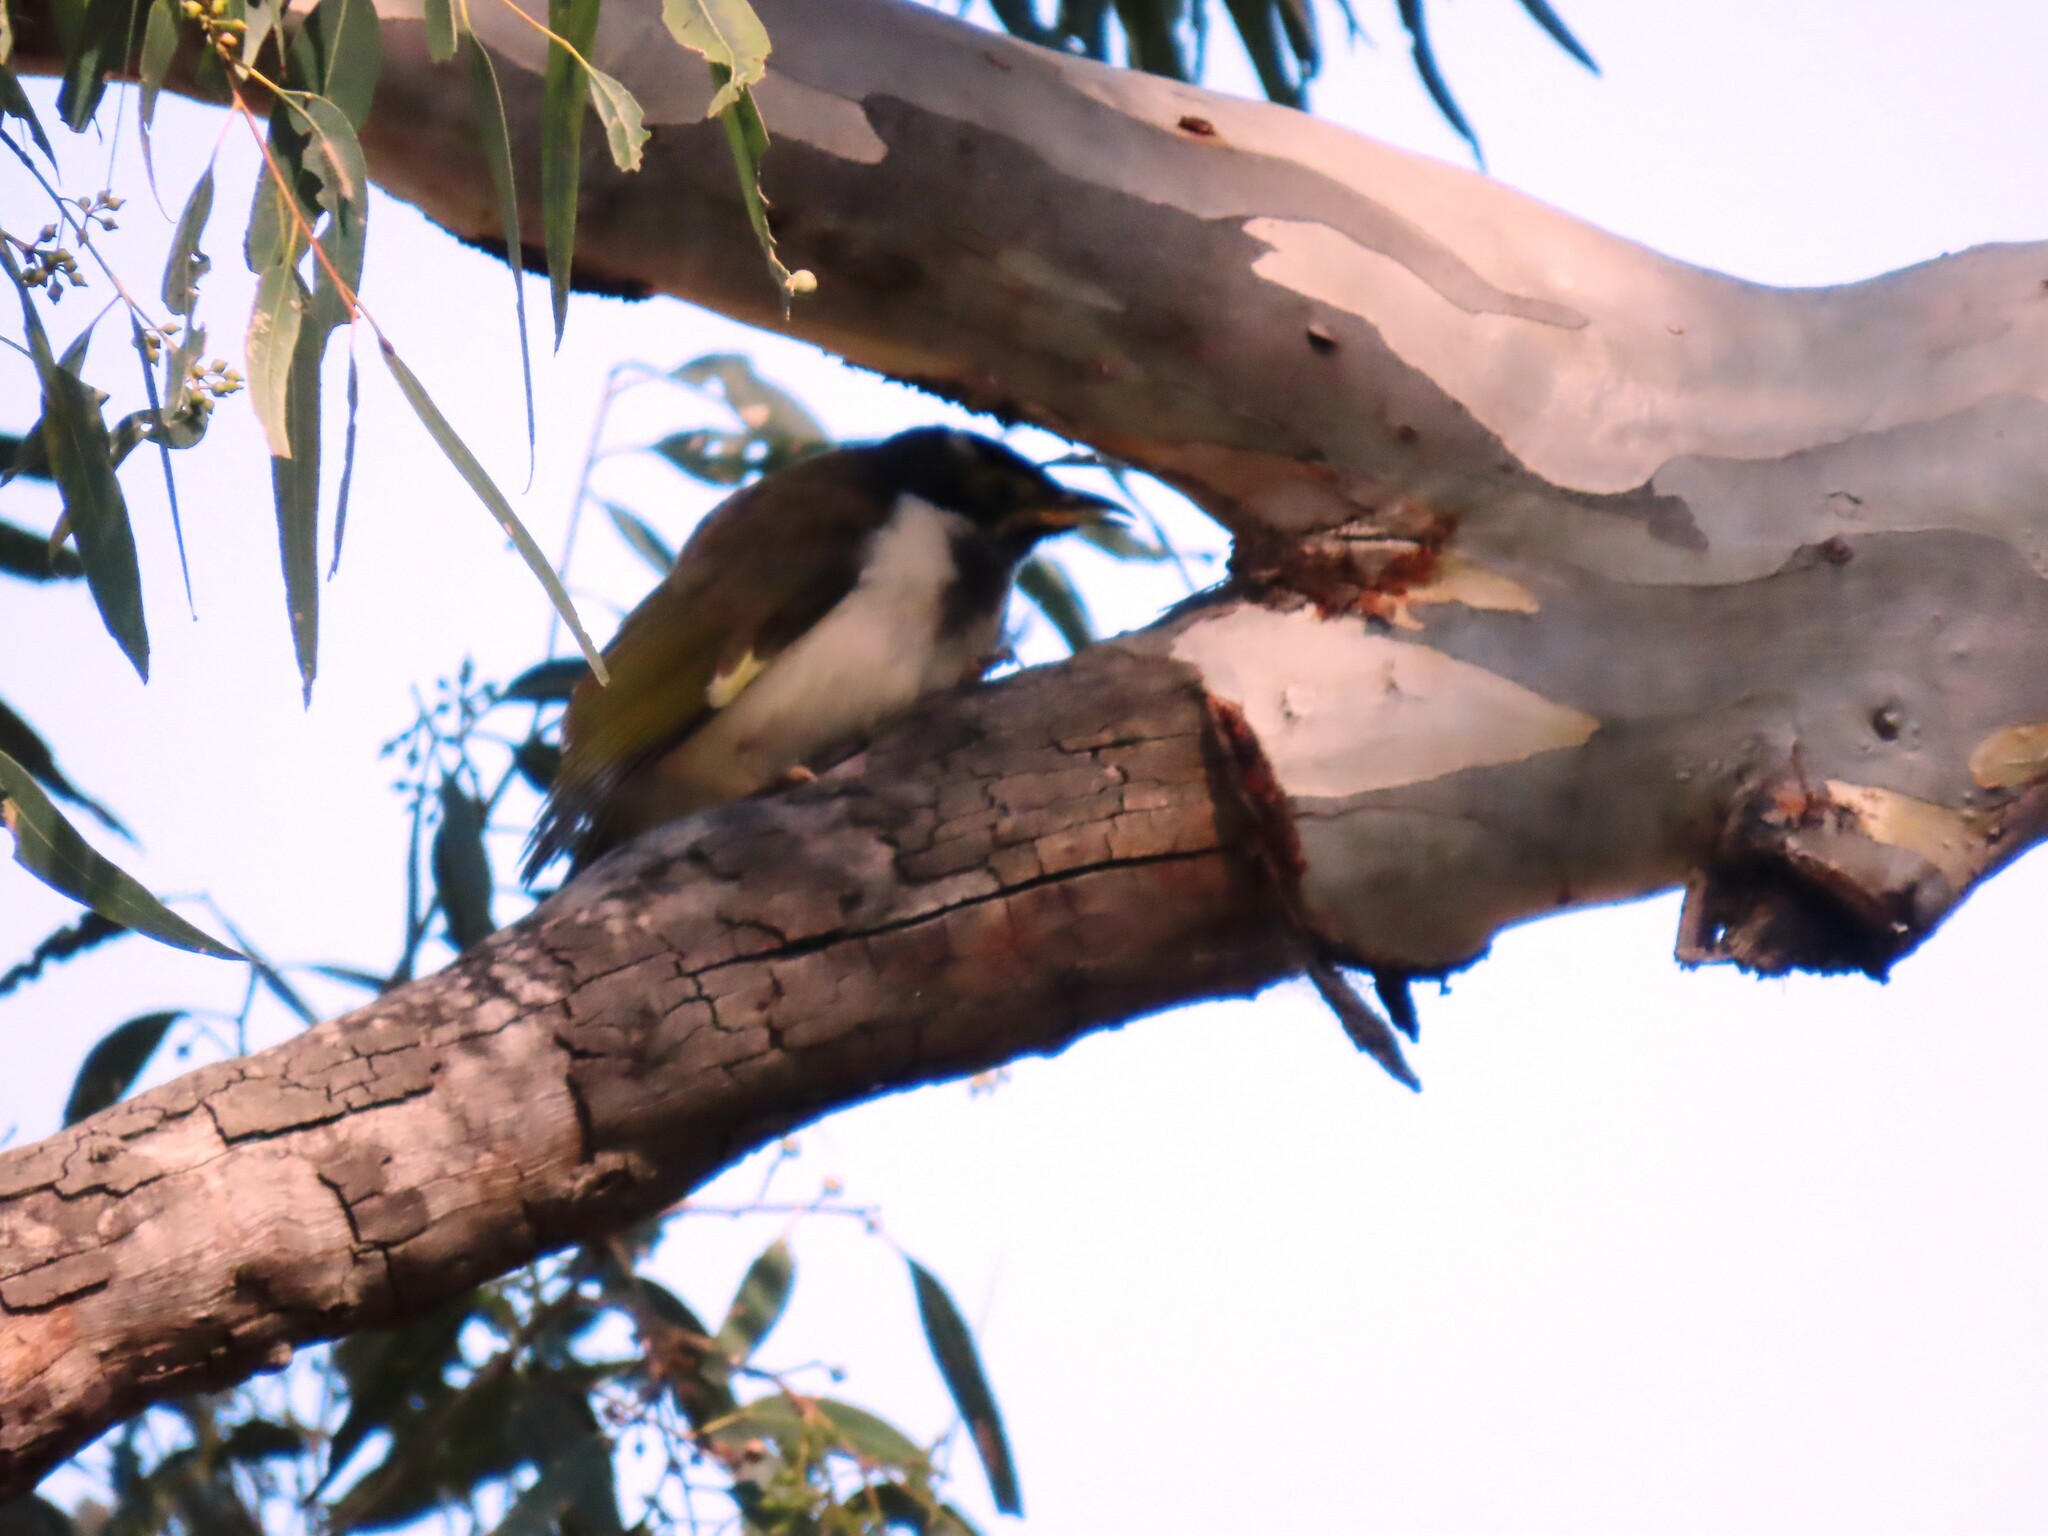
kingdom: Animalia
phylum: Chordata
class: Aves
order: Passeriformes
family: Meliphagidae
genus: Entomyzon
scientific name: Entomyzon cyanotis
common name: Blue-faced honeyeater
